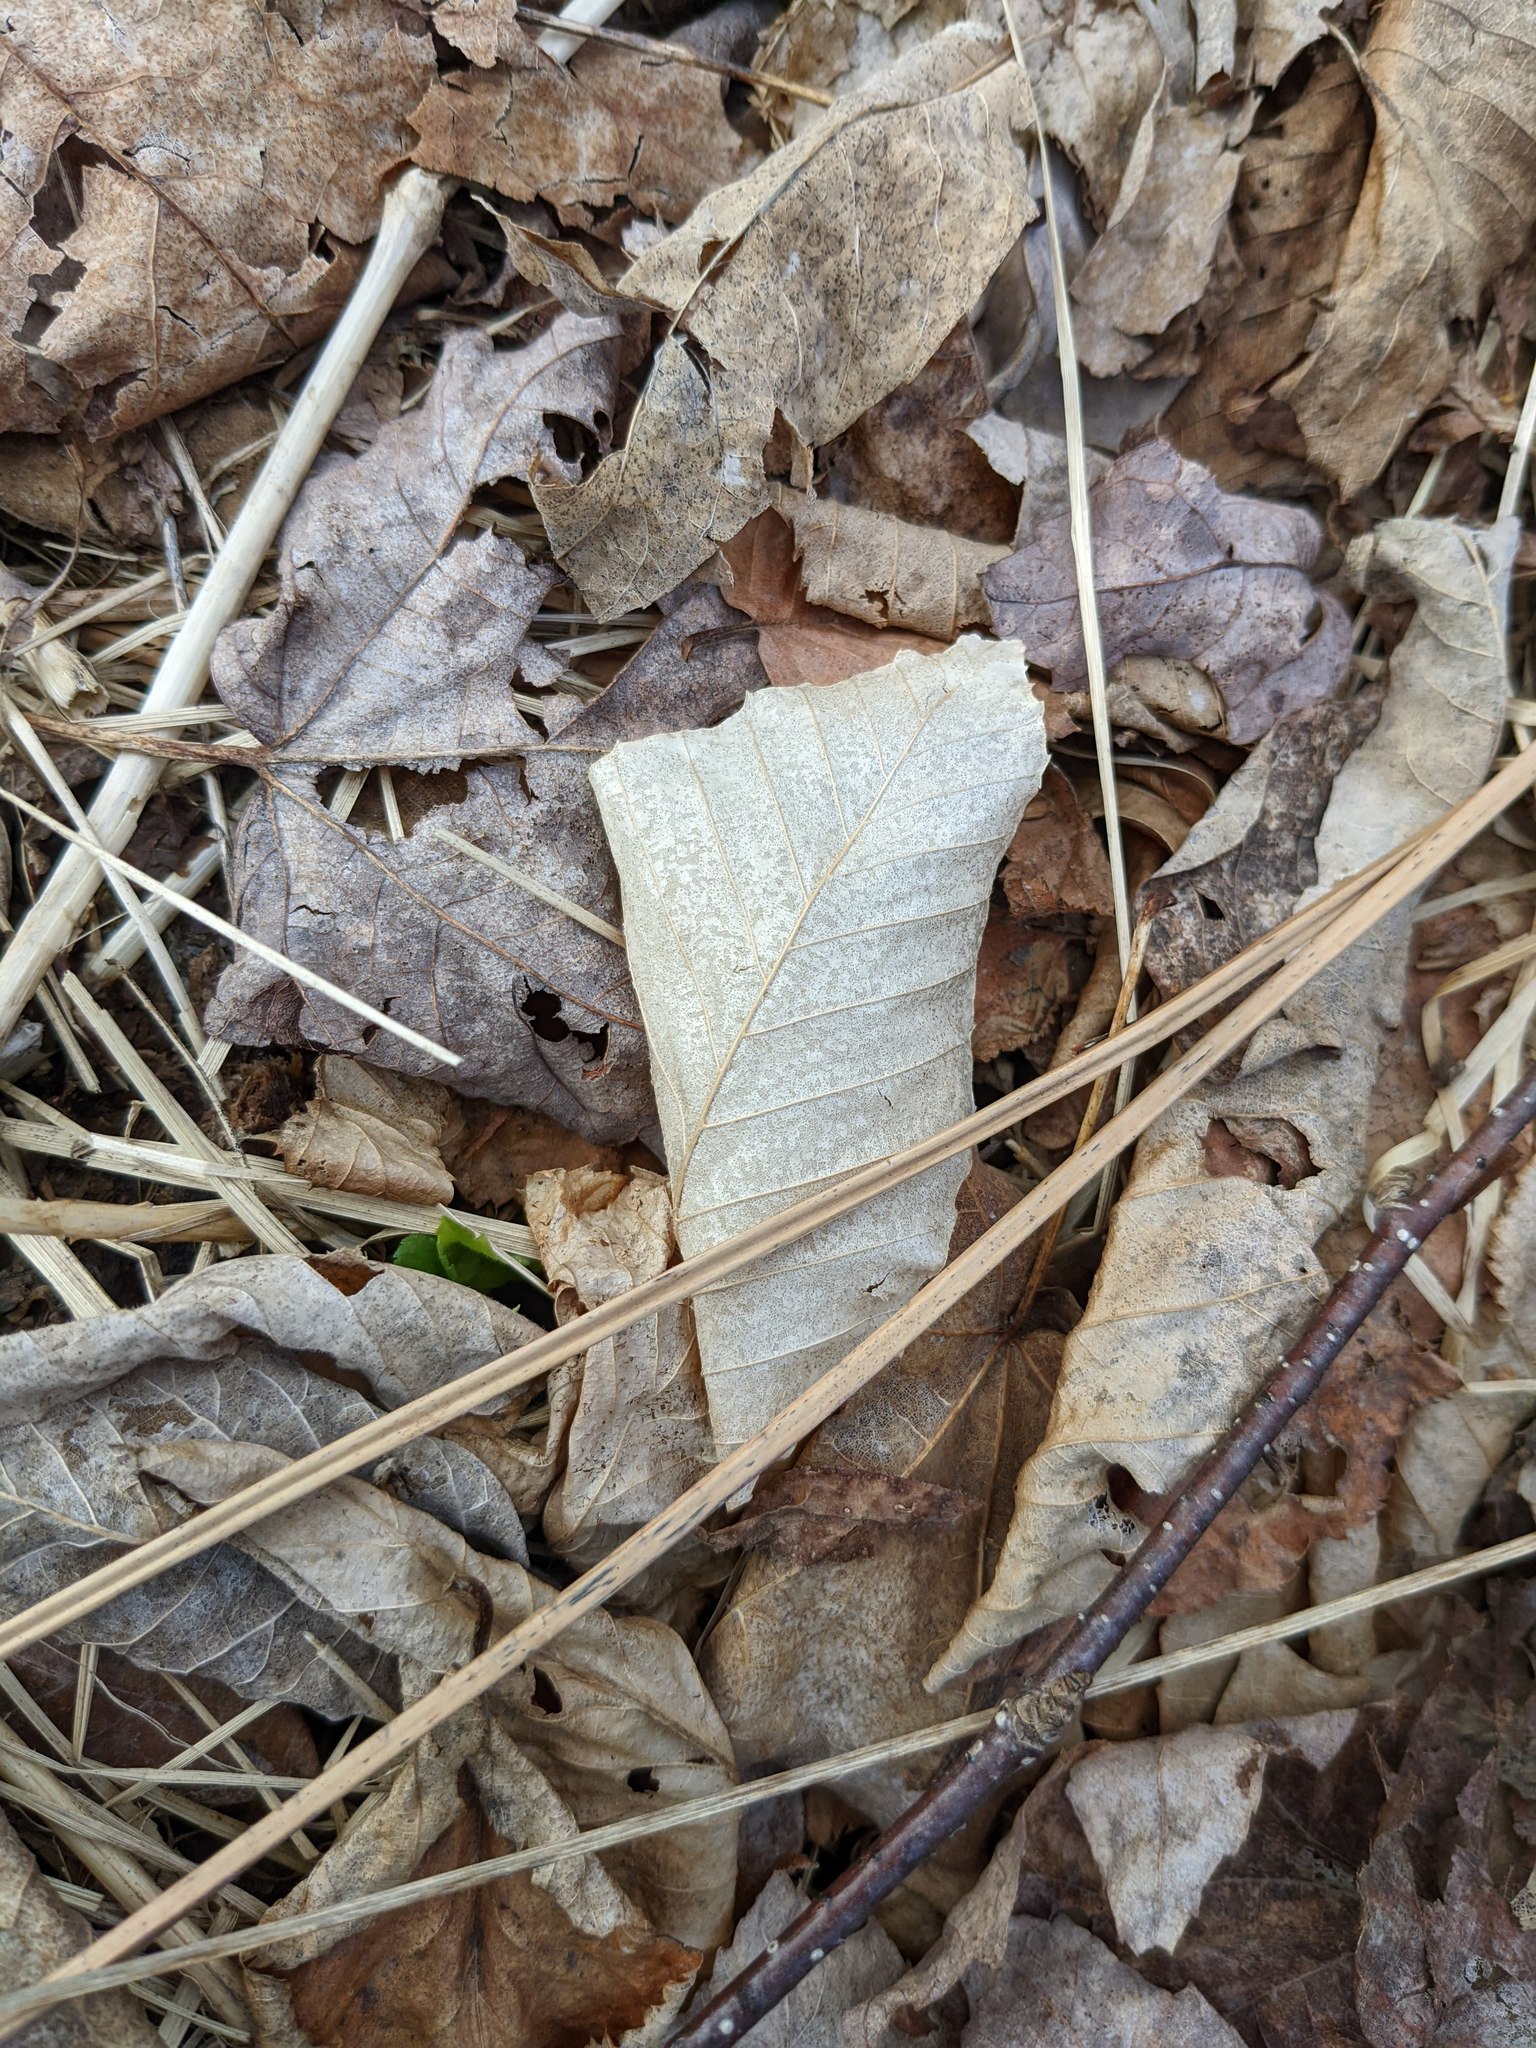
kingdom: Plantae
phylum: Tracheophyta
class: Magnoliopsida
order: Fagales
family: Fagaceae
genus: Fagus
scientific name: Fagus grandifolia
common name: American beech
